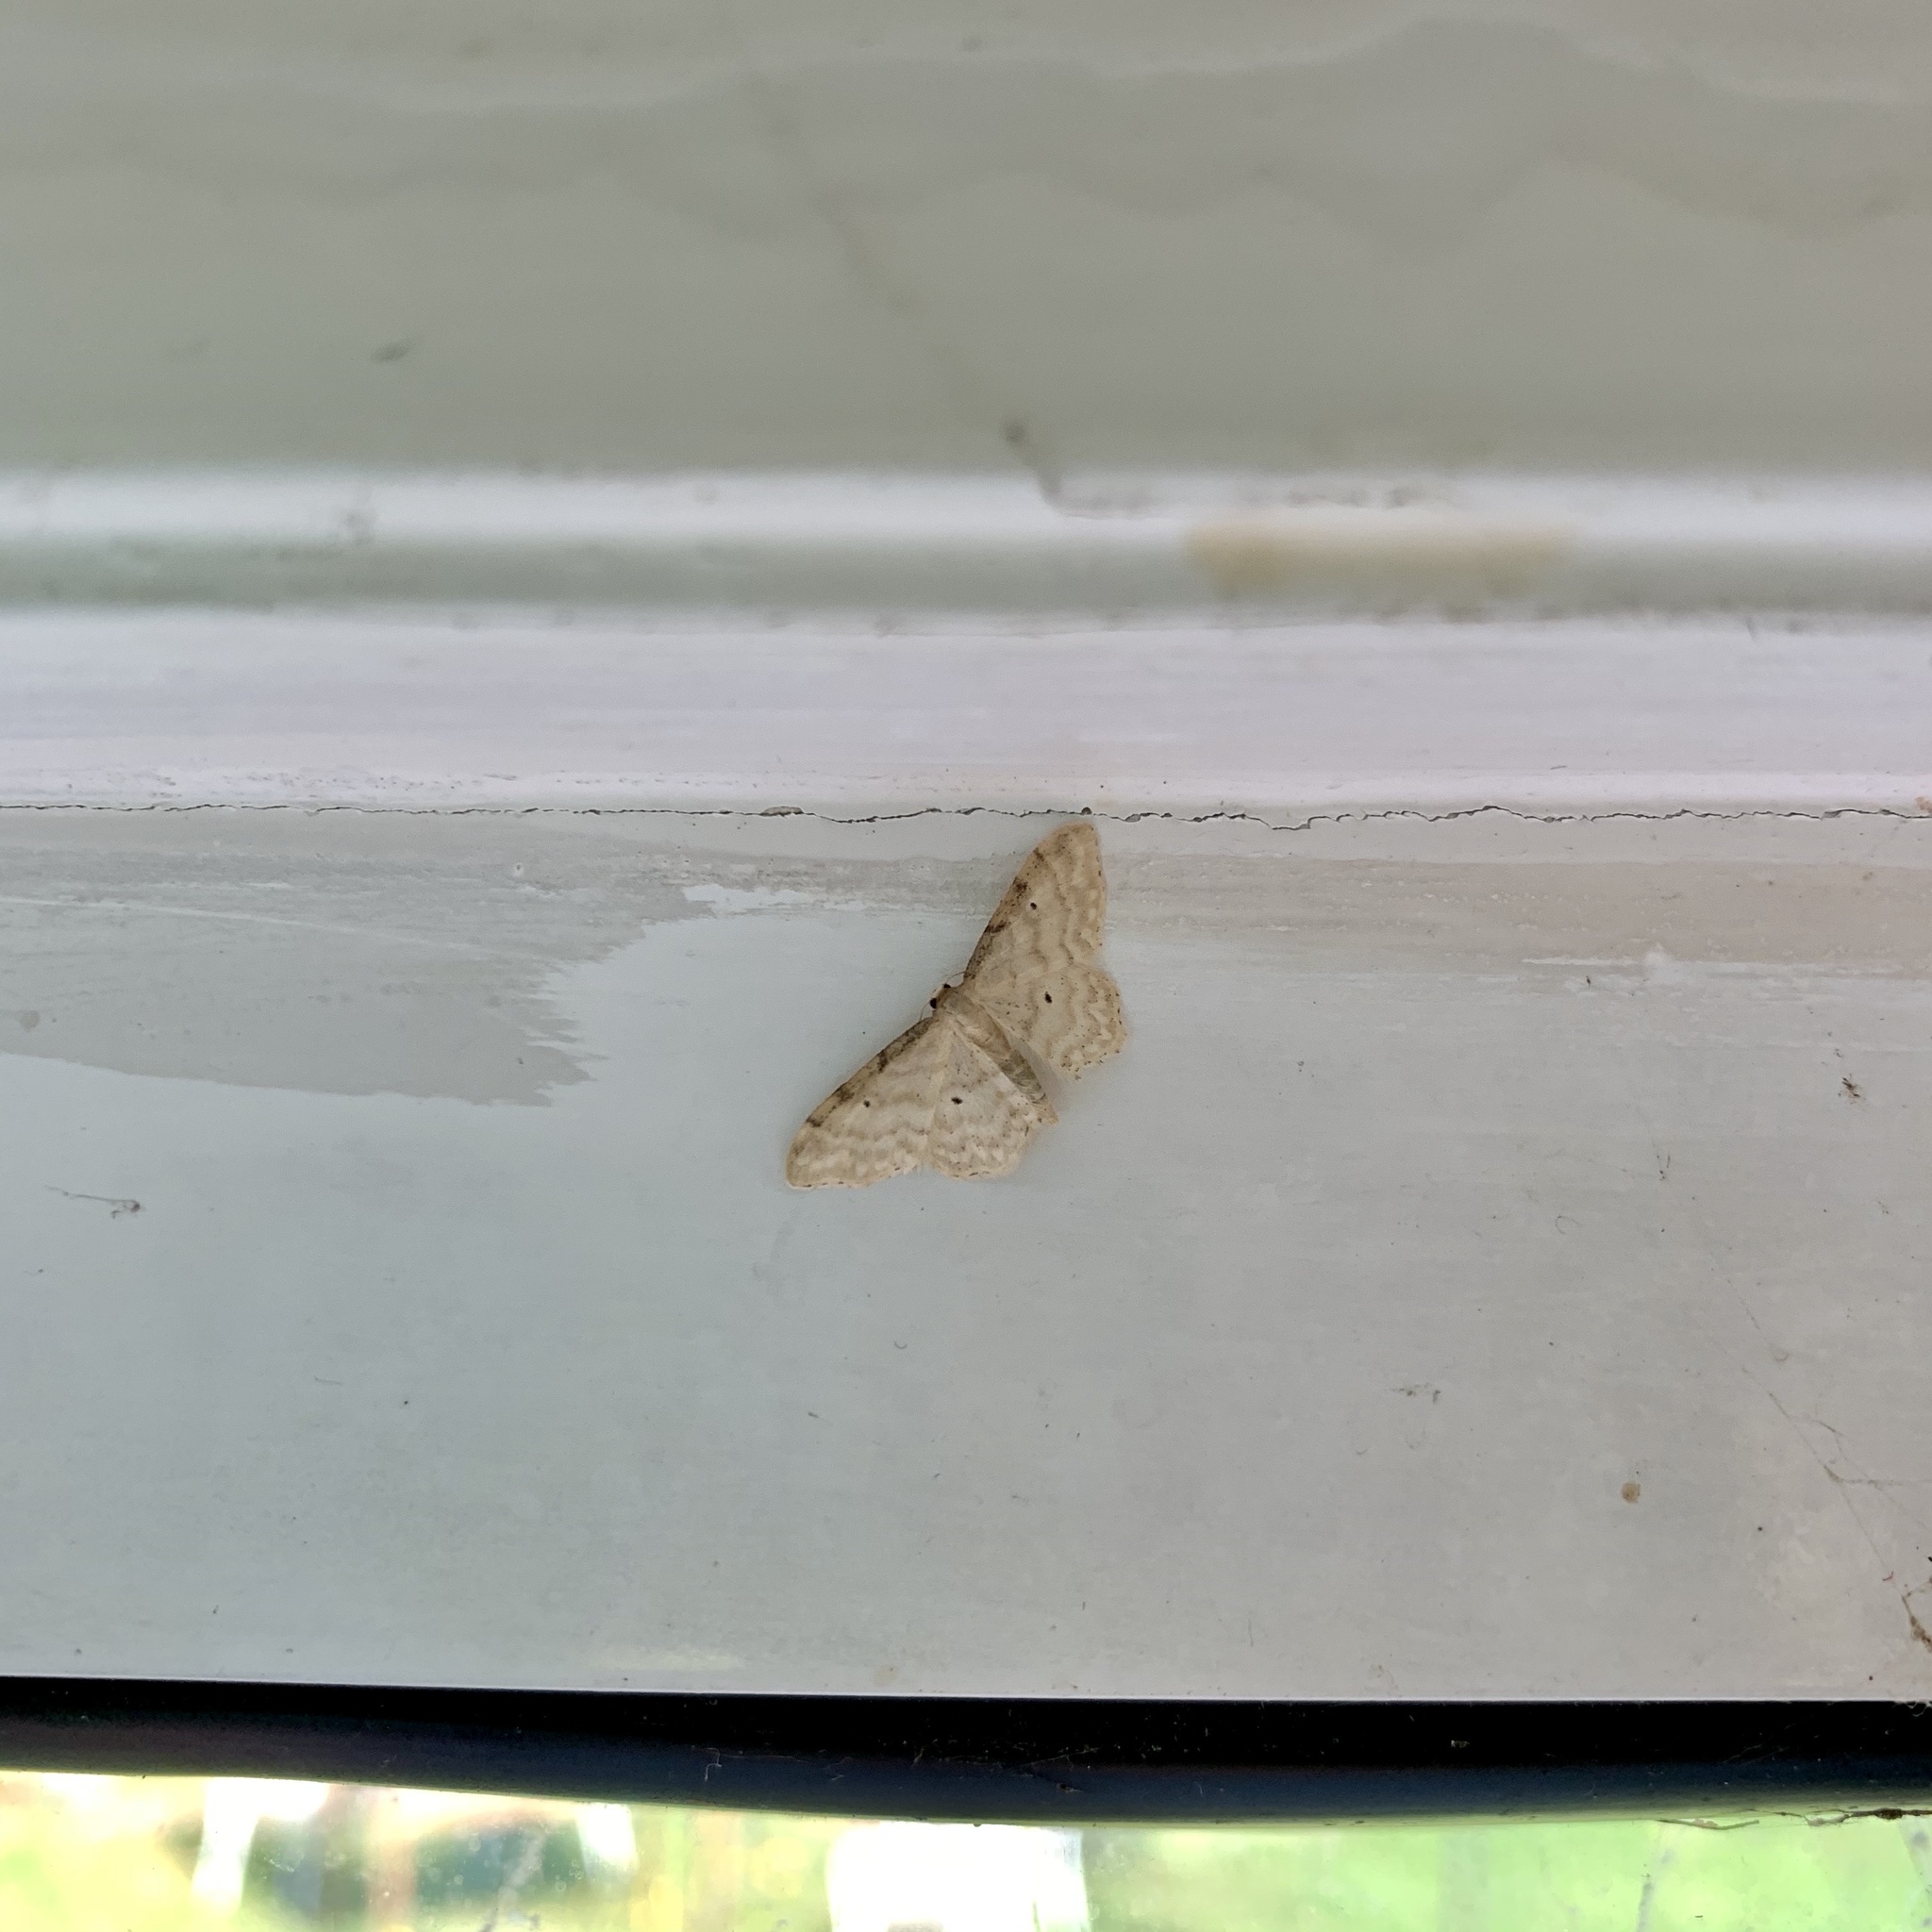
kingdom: Animalia
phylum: Arthropoda
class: Insecta
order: Lepidoptera
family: Geometridae
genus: Idaea
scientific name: Idaea fuscovenosa
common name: Dwarf cream wave
